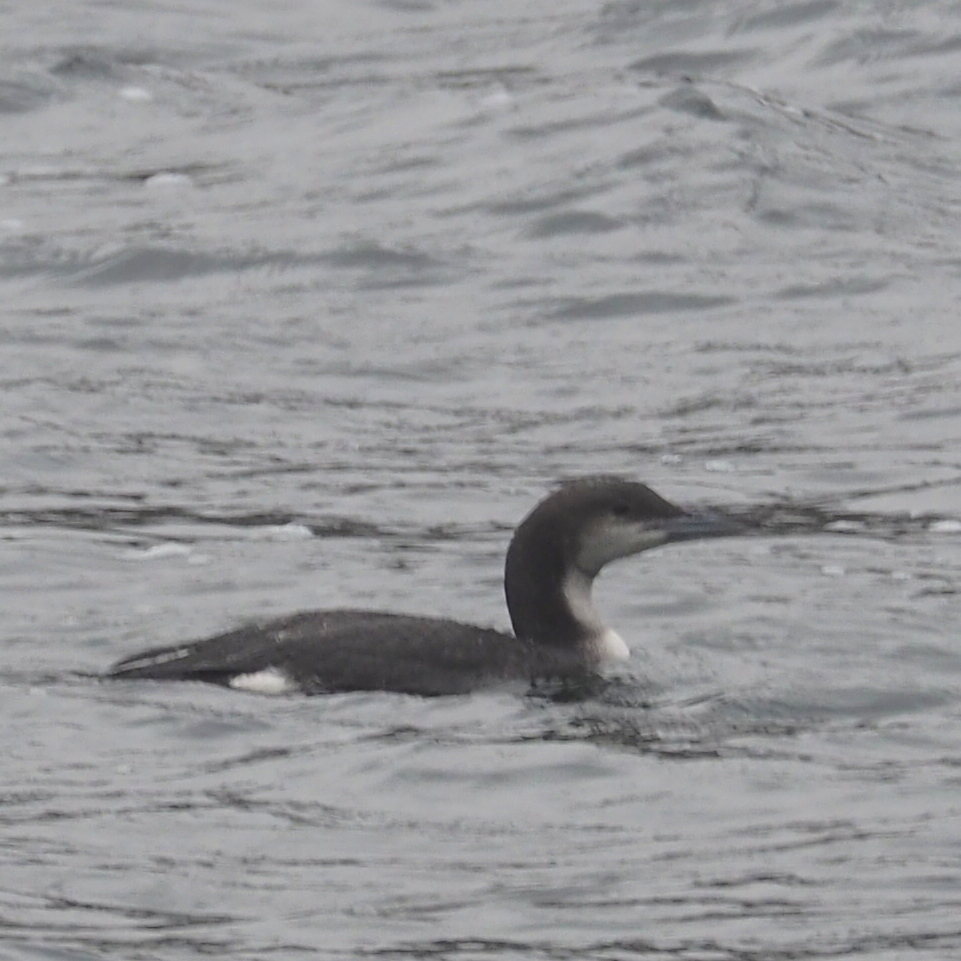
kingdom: Animalia
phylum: Chordata
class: Aves
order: Gaviiformes
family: Gaviidae
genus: Gavia
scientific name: Gavia arctica
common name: Black-throated loon
